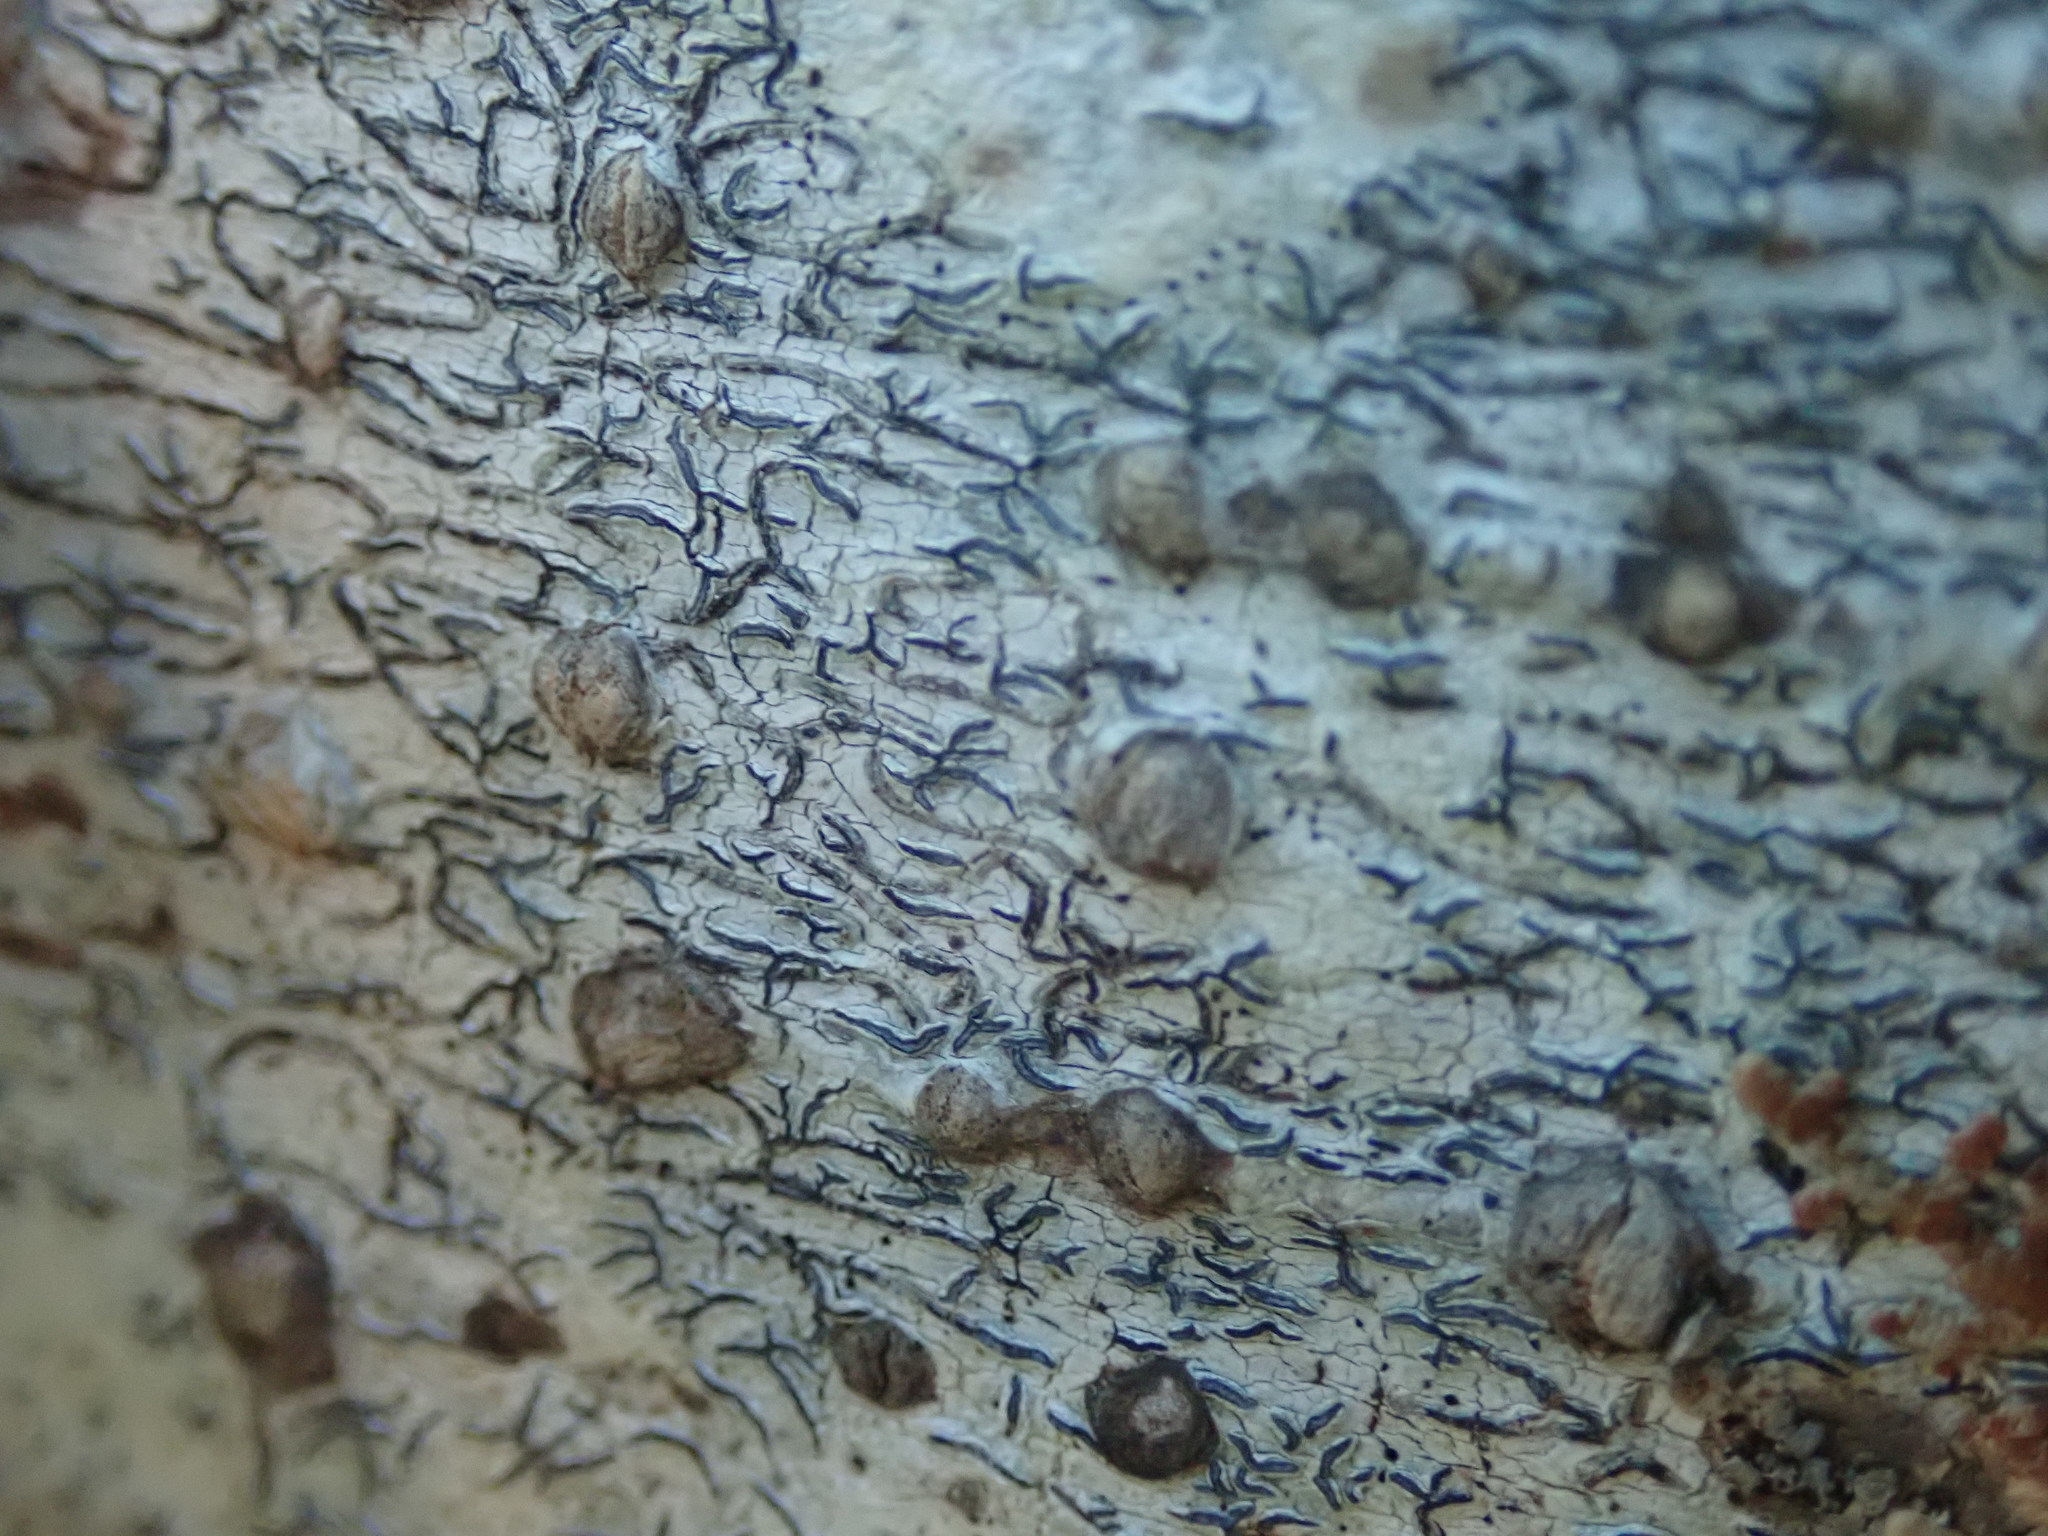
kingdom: Fungi
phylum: Ascomycota
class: Lecanoromycetes
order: Ostropales
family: Graphidaceae
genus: Graphis
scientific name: Graphis scripta
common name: Script lichen
